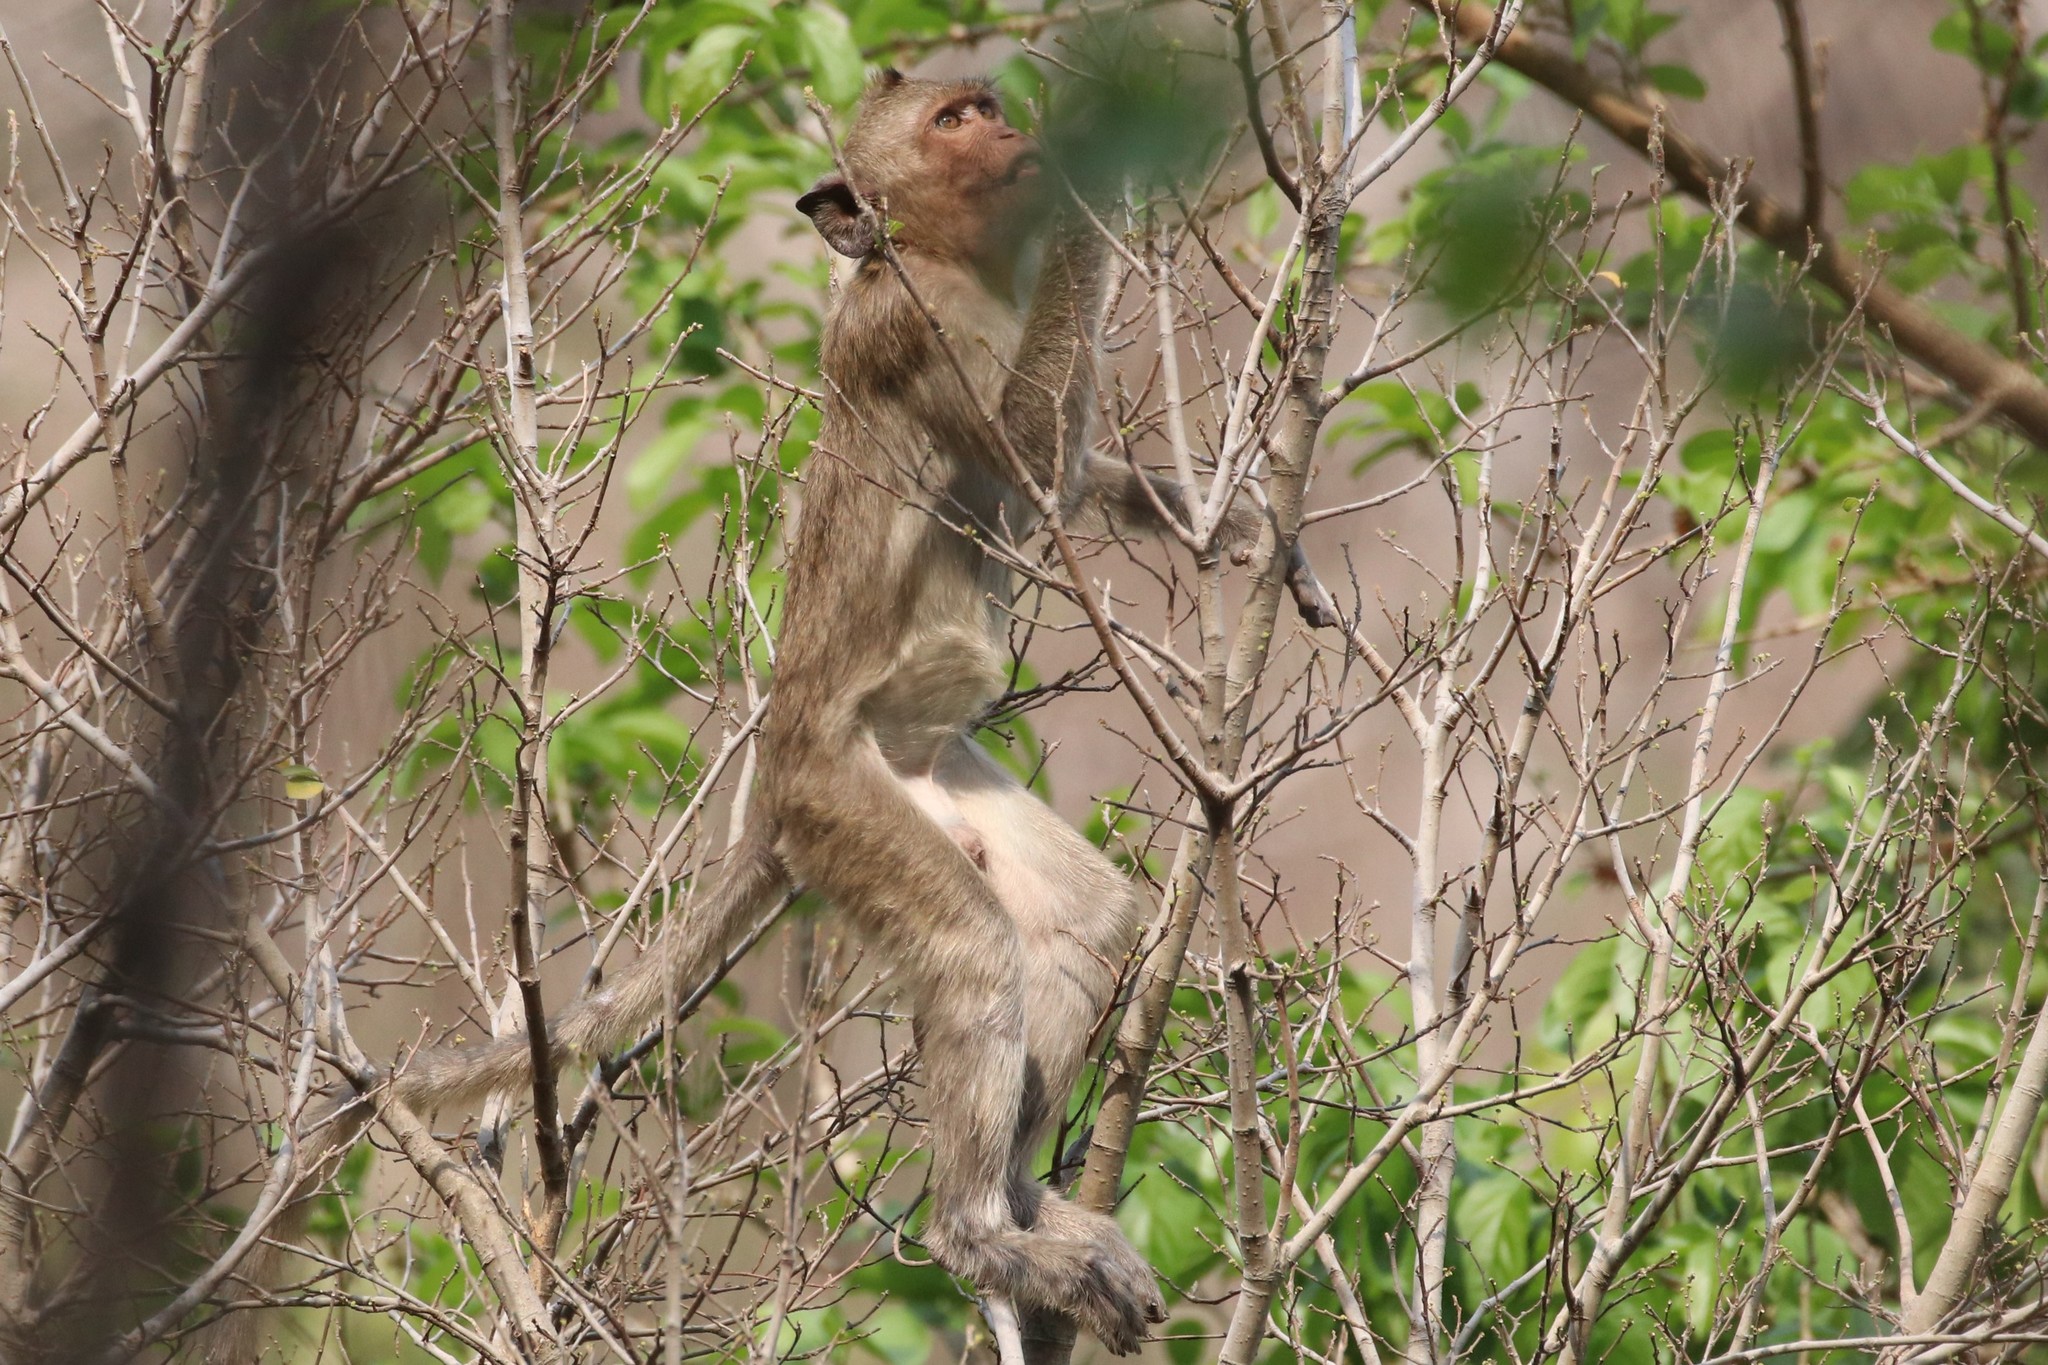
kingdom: Animalia
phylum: Chordata
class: Mammalia
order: Primates
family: Cercopithecidae
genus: Macaca
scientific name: Macaca fascicularis
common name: Crab-eating macaque
